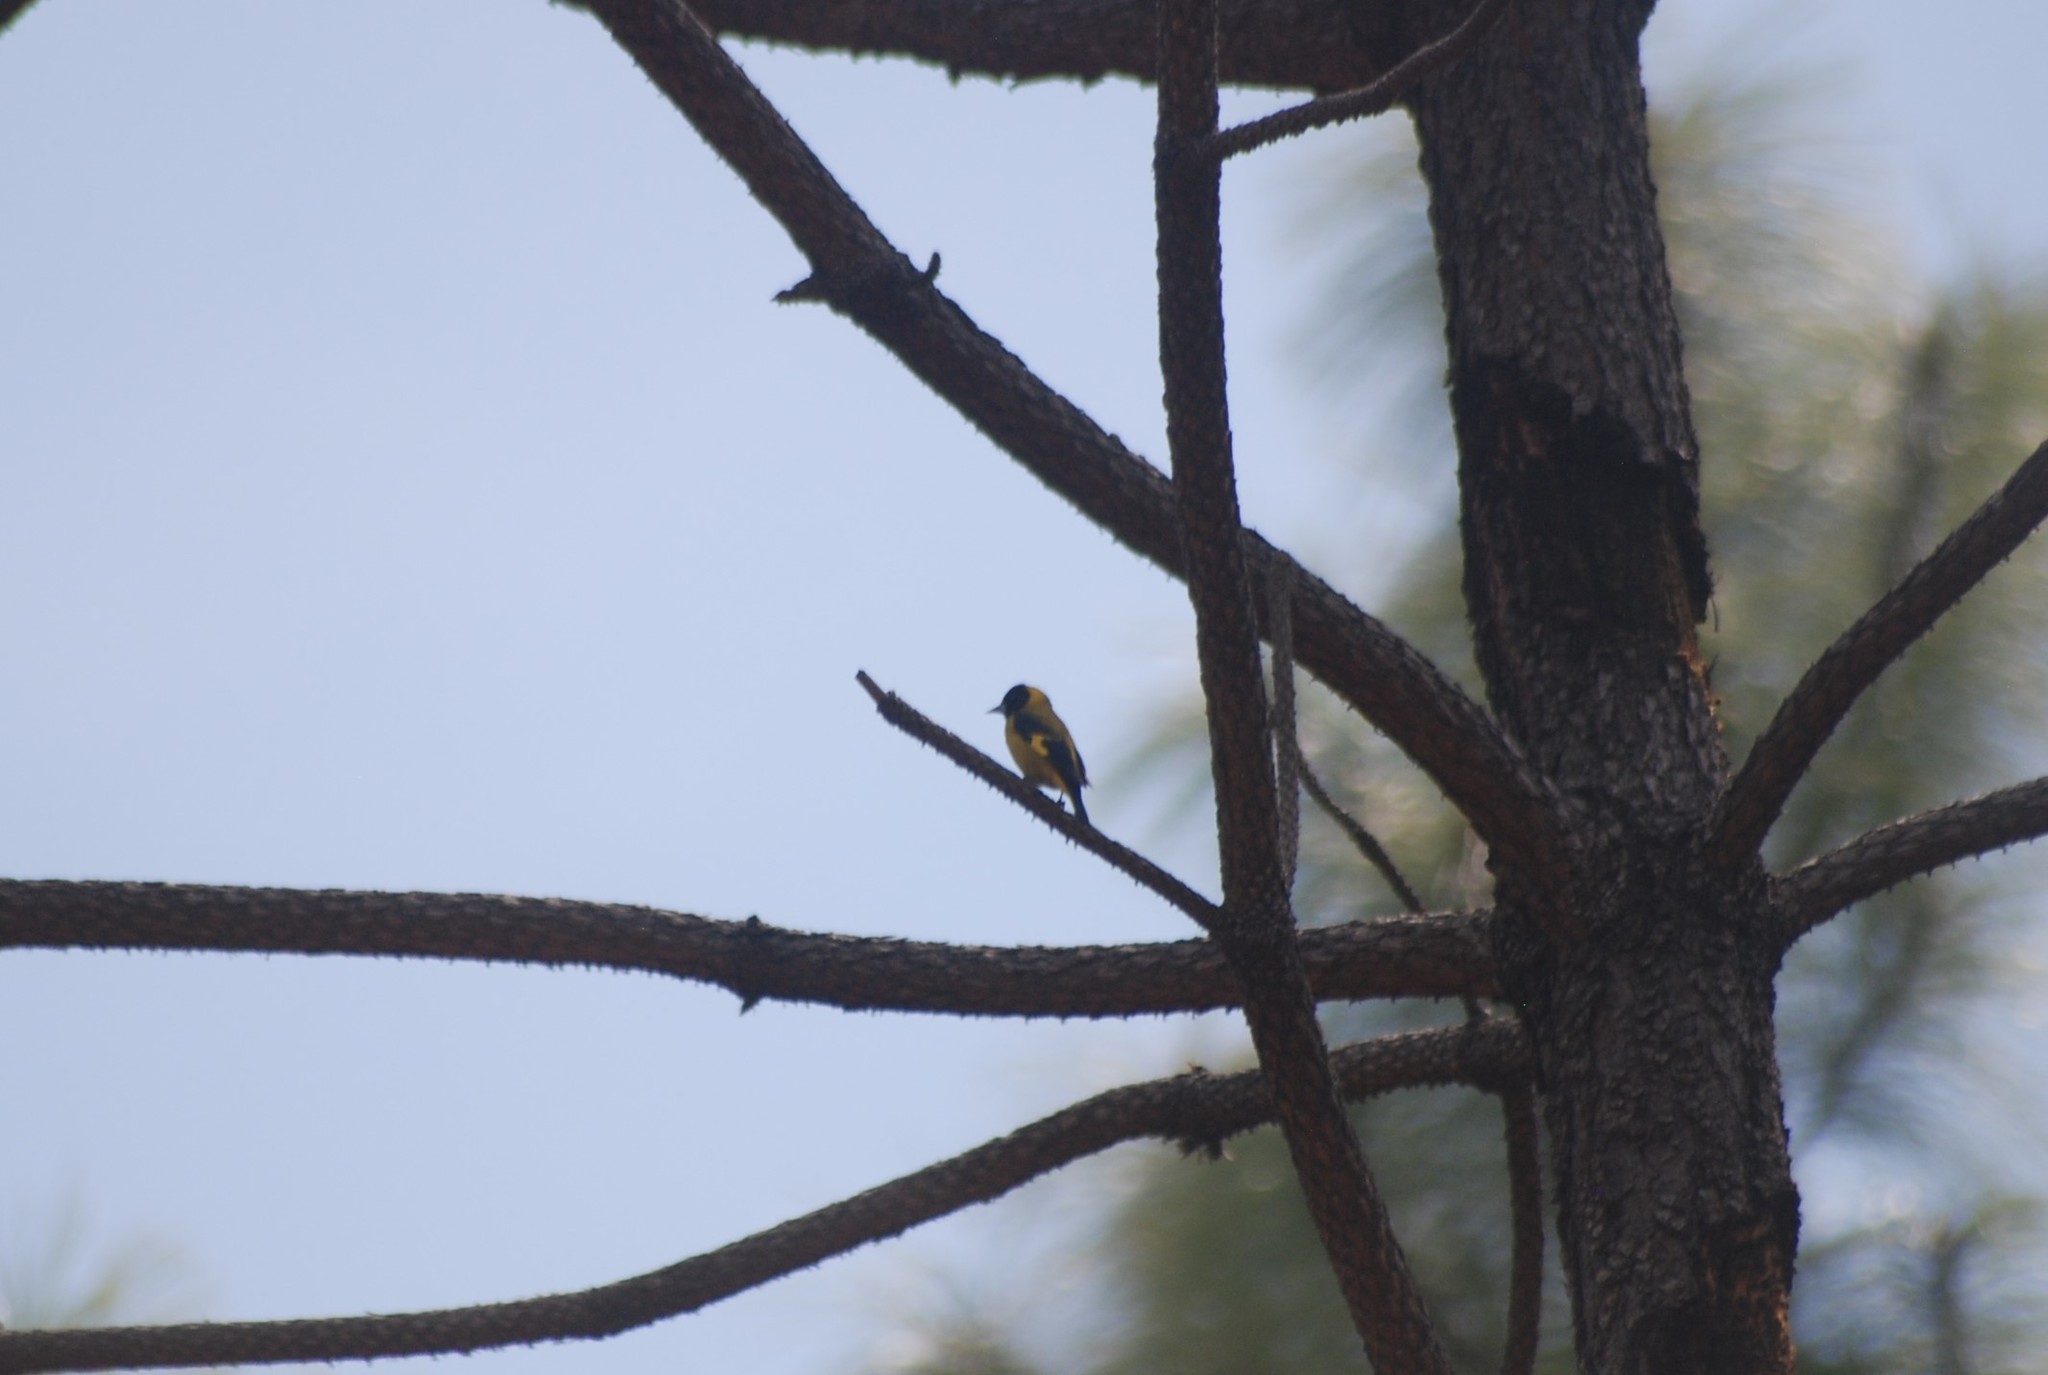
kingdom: Animalia
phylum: Chordata
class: Aves
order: Passeriformes
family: Fringillidae
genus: Spinus
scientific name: Spinus notatus
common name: Black-headed siskin
